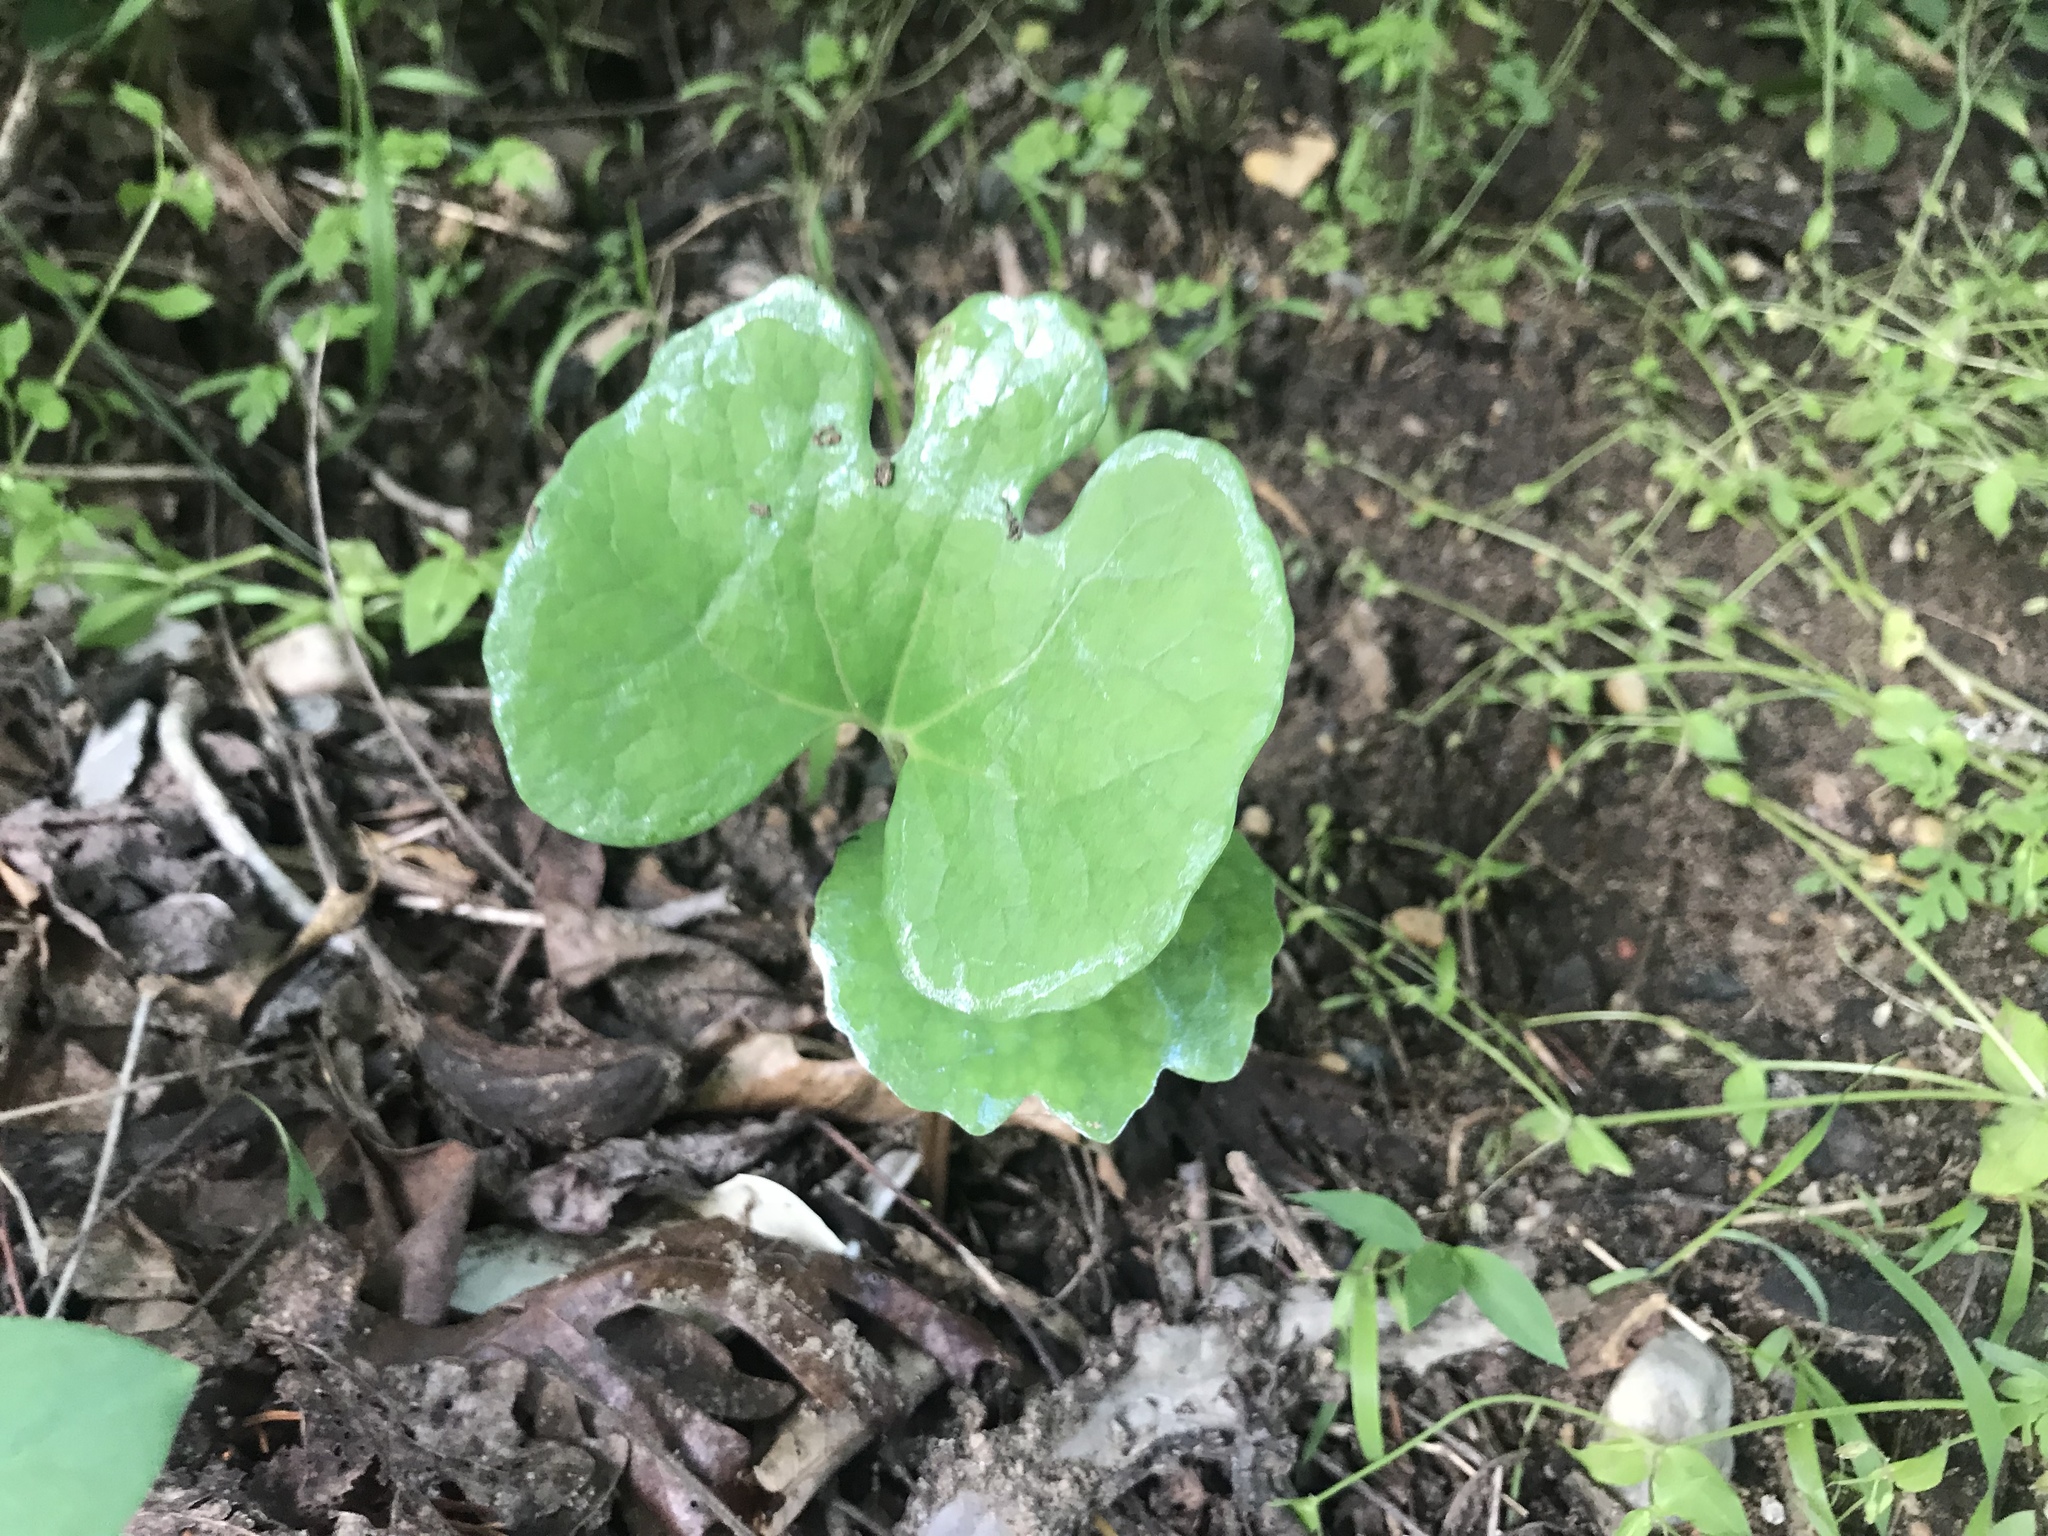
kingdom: Plantae
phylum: Tracheophyta
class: Magnoliopsida
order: Ranunculales
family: Papaveraceae
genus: Sanguinaria
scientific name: Sanguinaria canadensis
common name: Bloodroot
